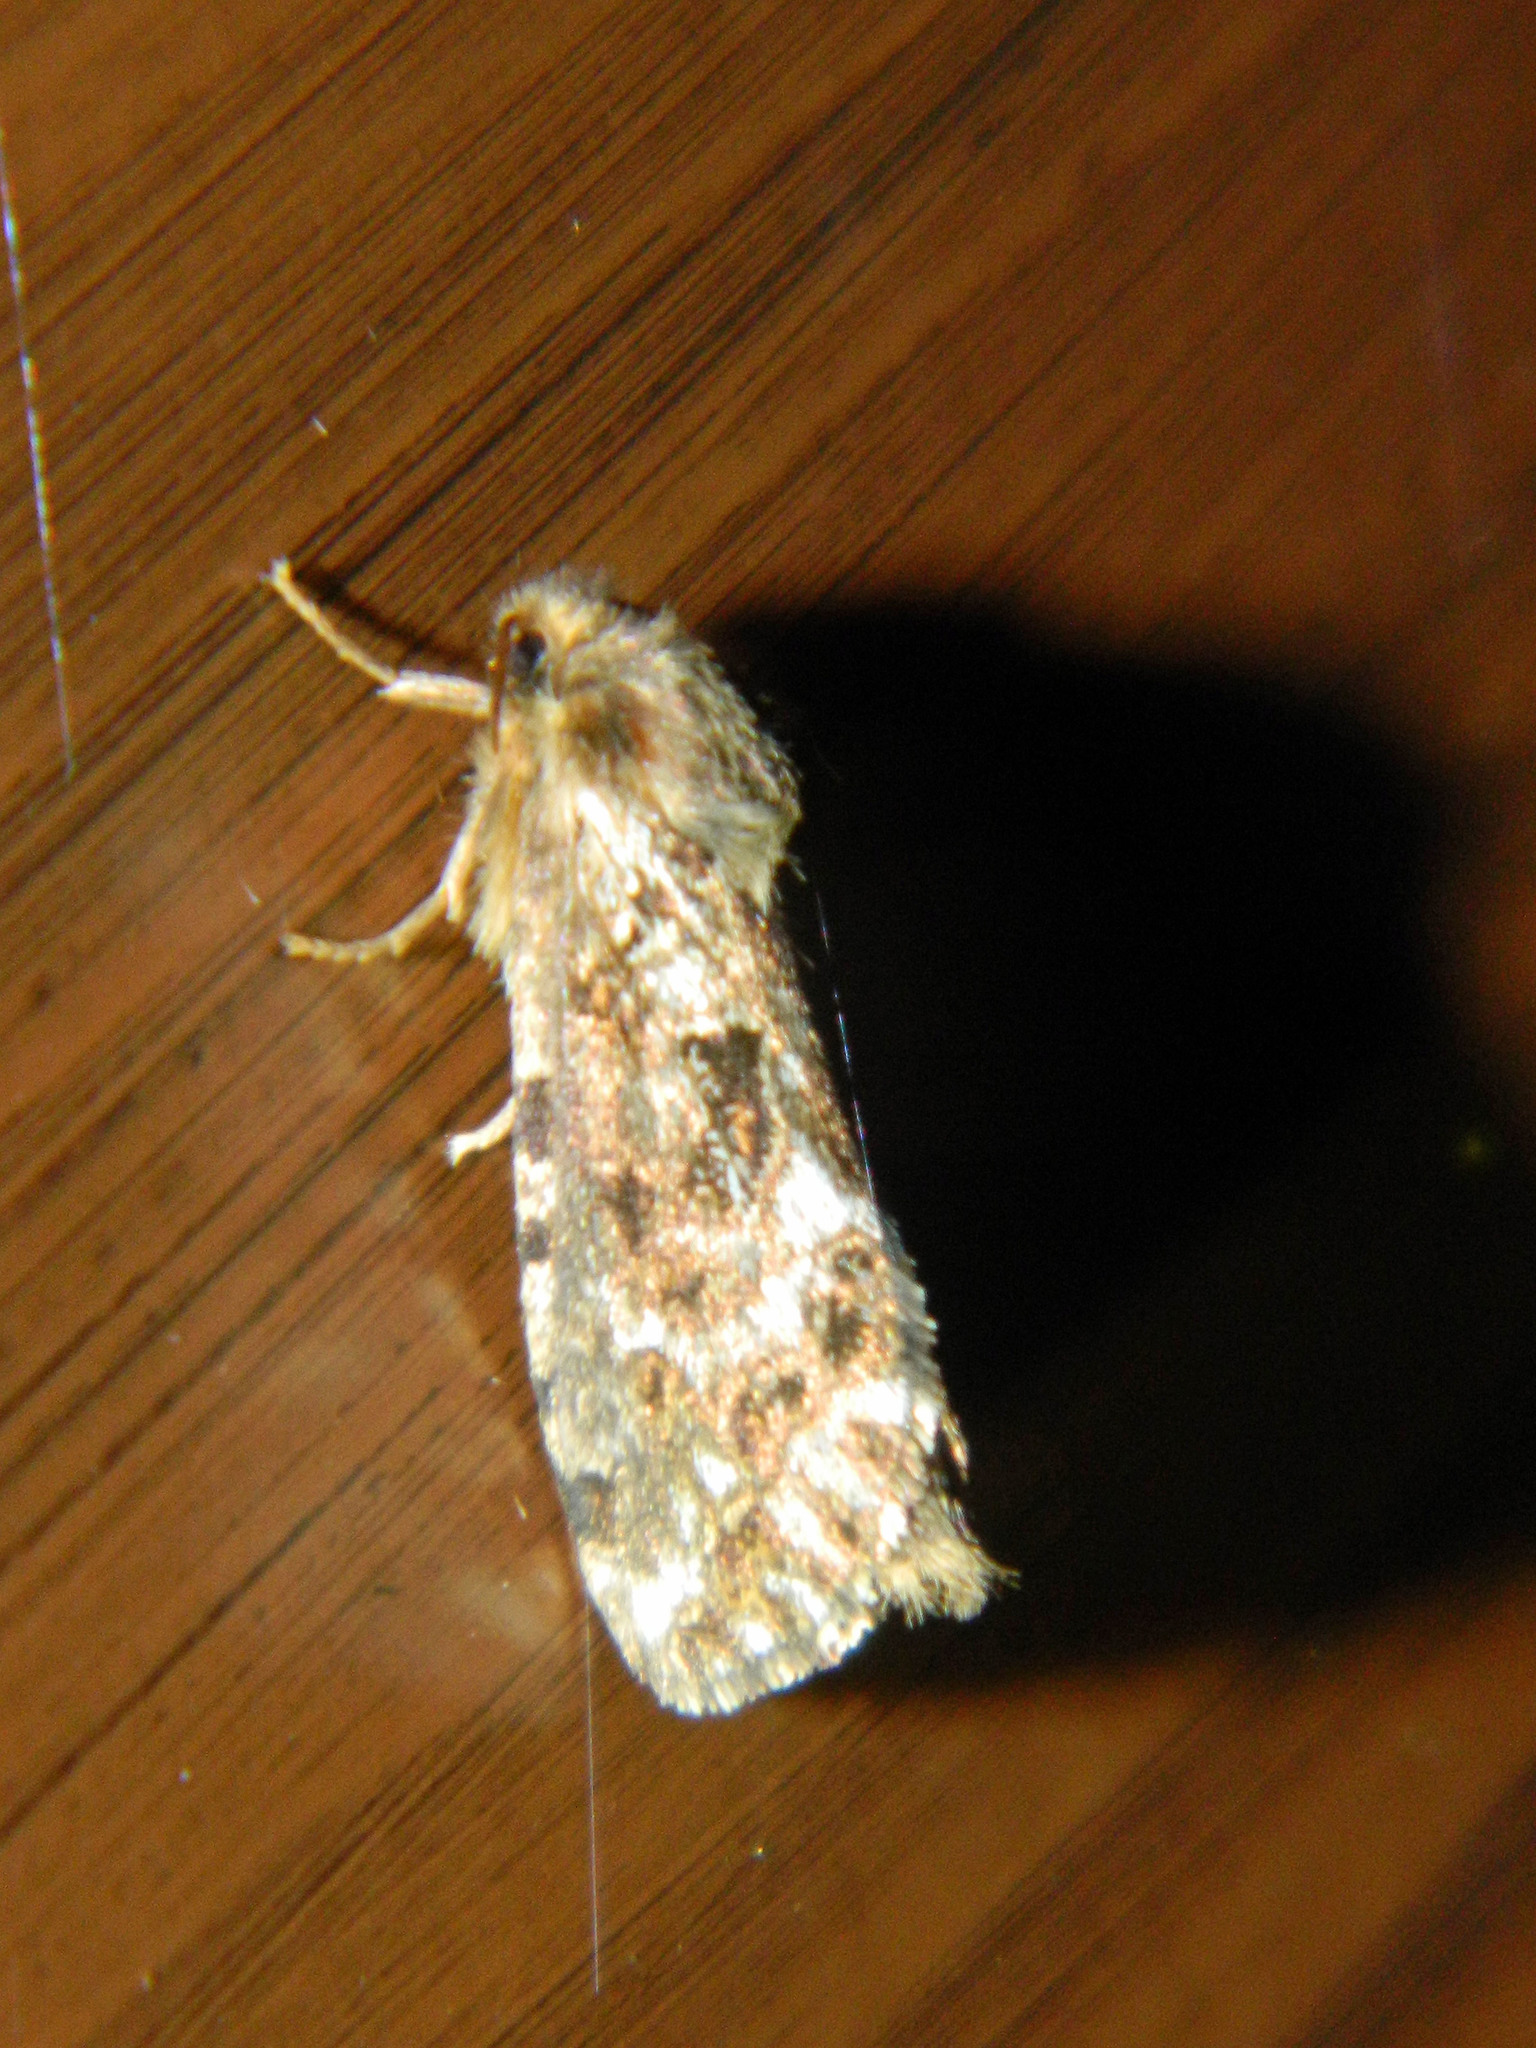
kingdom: Animalia
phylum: Arthropoda
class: Insecta
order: Lepidoptera
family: Hepialidae
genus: Korscheltellus
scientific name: Korscheltellus gracilis
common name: Conifer swift moth
